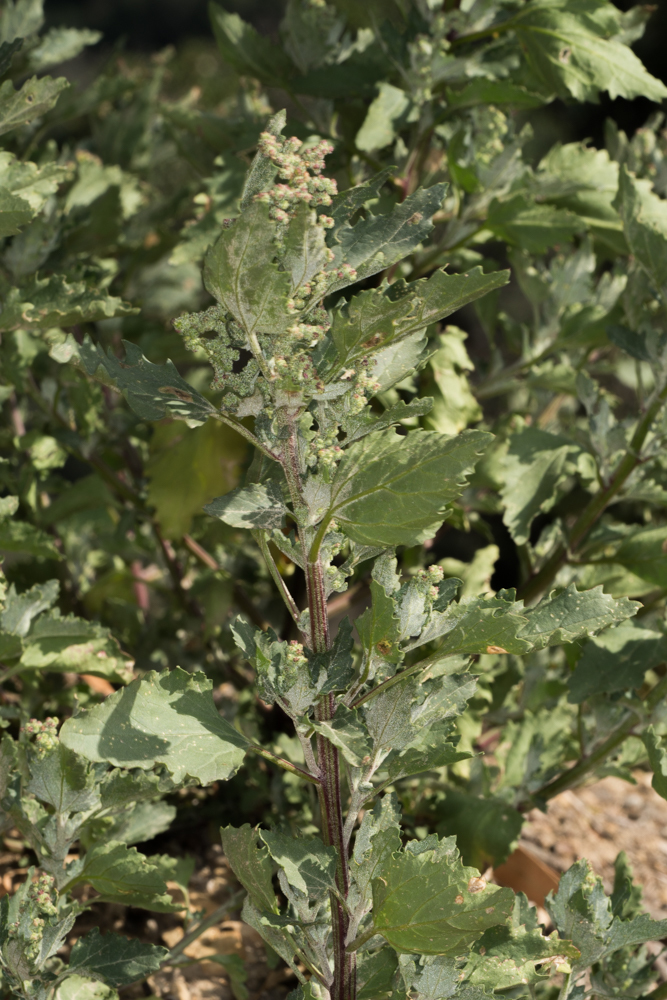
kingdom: Plantae
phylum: Tracheophyta
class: Magnoliopsida
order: Caryophyllales
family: Amaranthaceae
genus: Chenopodiastrum
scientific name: Chenopodiastrum murale
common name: Sowbane
